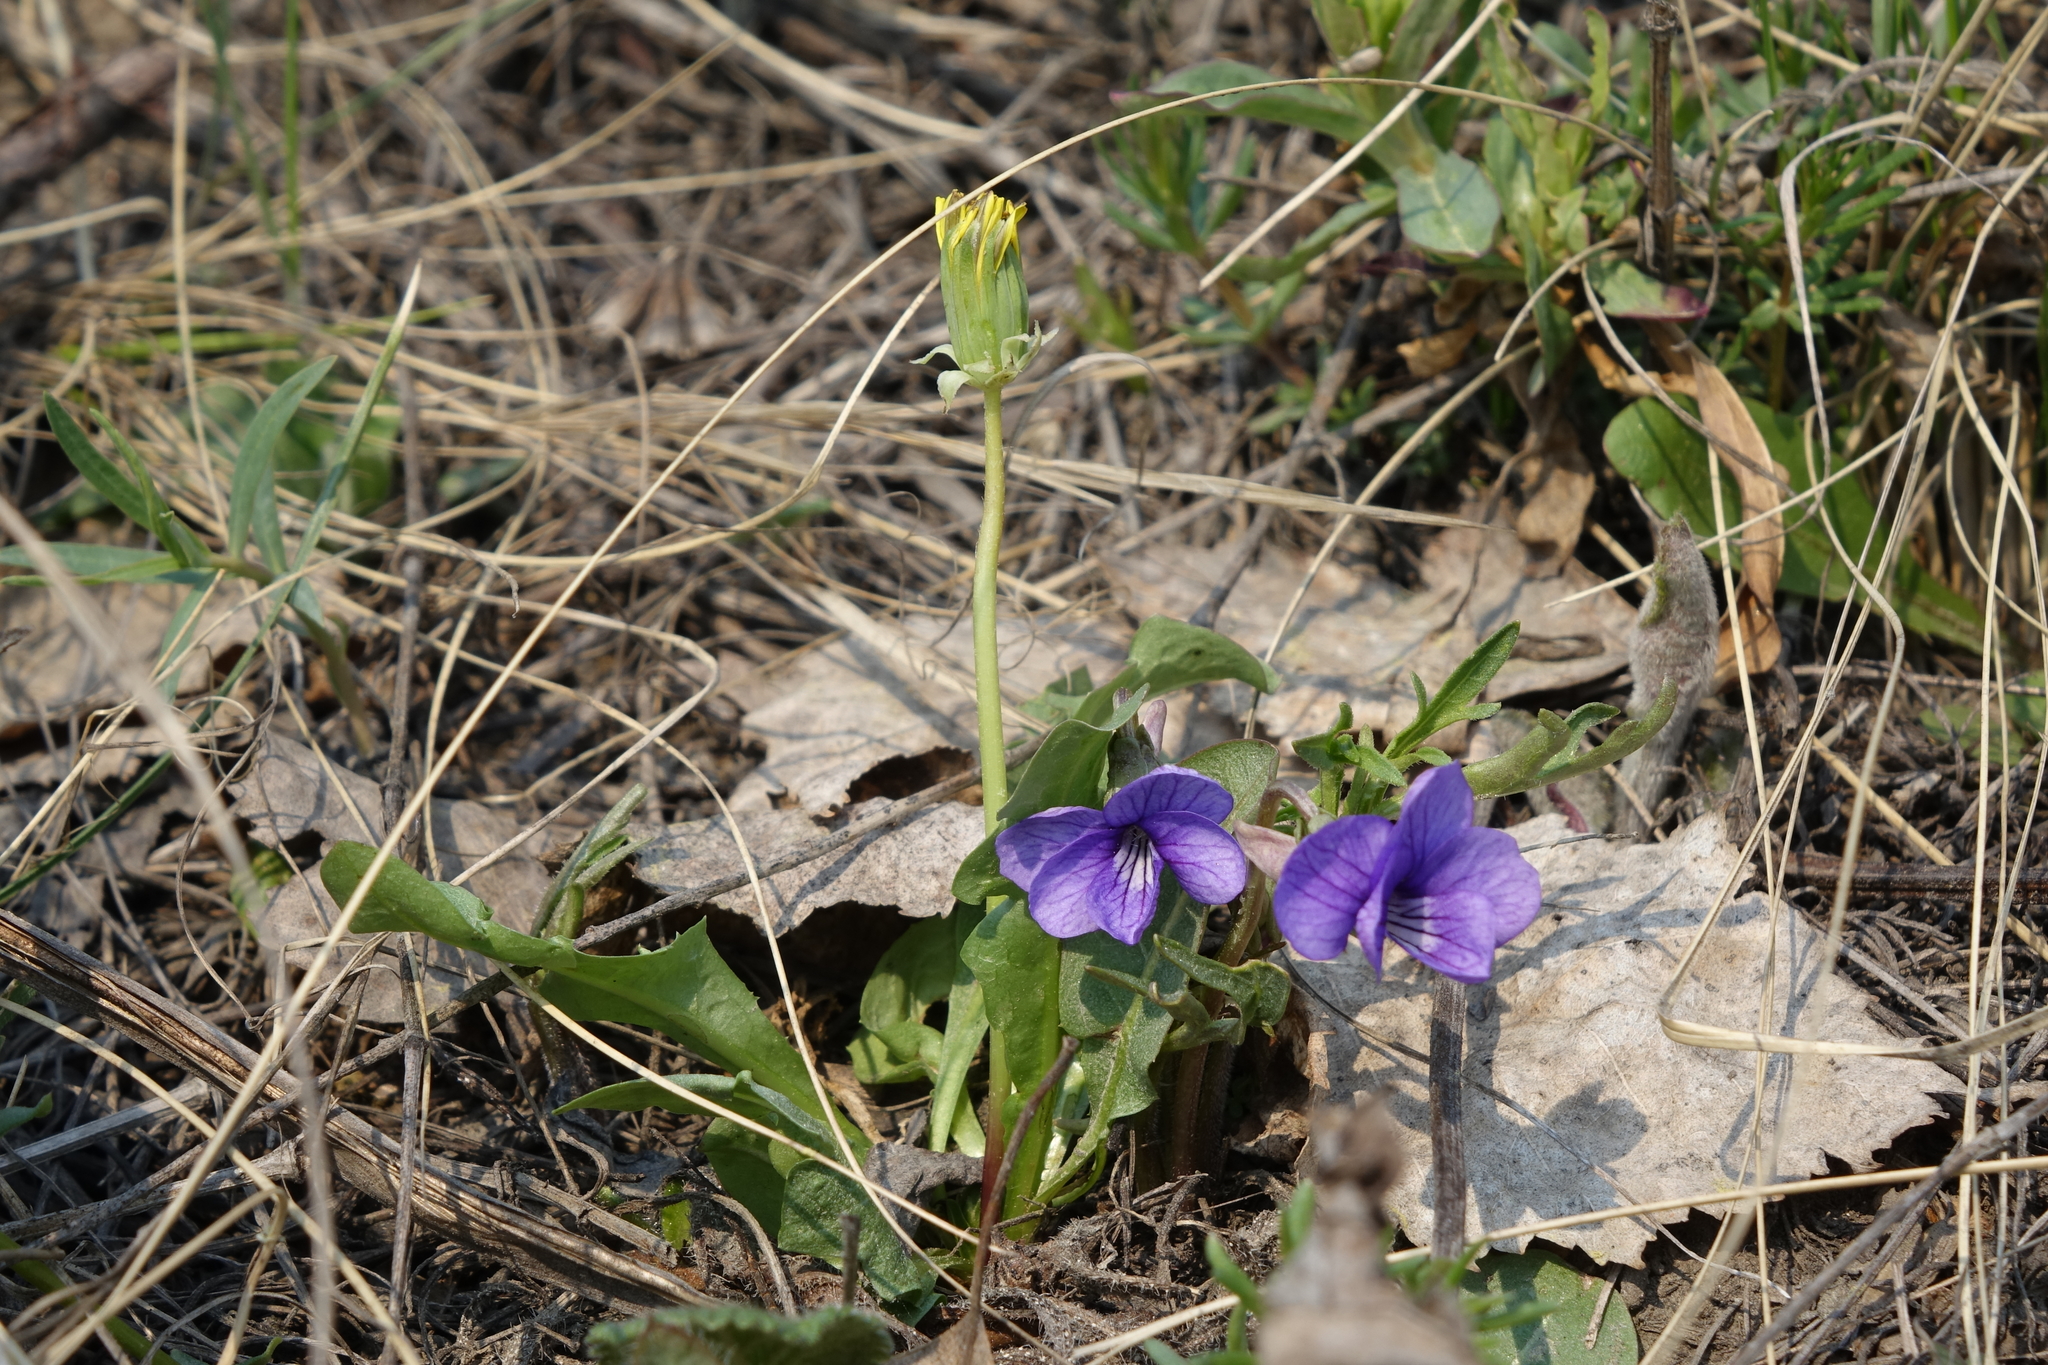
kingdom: Plantae
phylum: Tracheophyta
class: Magnoliopsida
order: Malpighiales
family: Violaceae
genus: Viola
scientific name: Viola multifida
